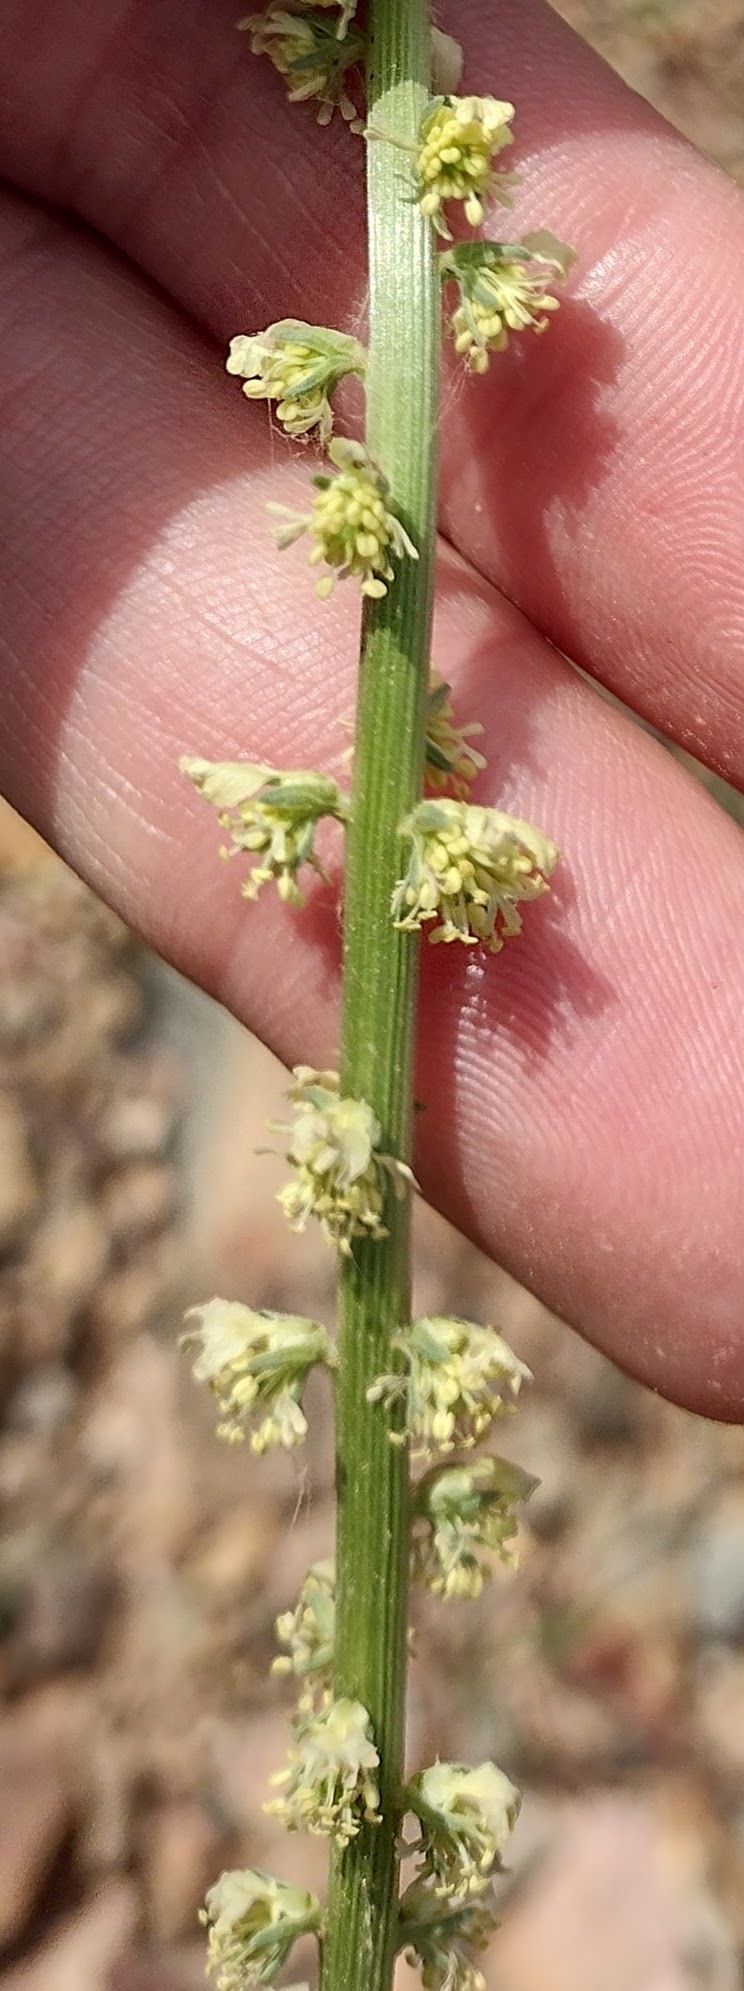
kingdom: Plantae
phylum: Tracheophyta
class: Magnoliopsida
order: Brassicales
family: Resedaceae
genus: Reseda
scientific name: Reseda luteola
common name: Weld
